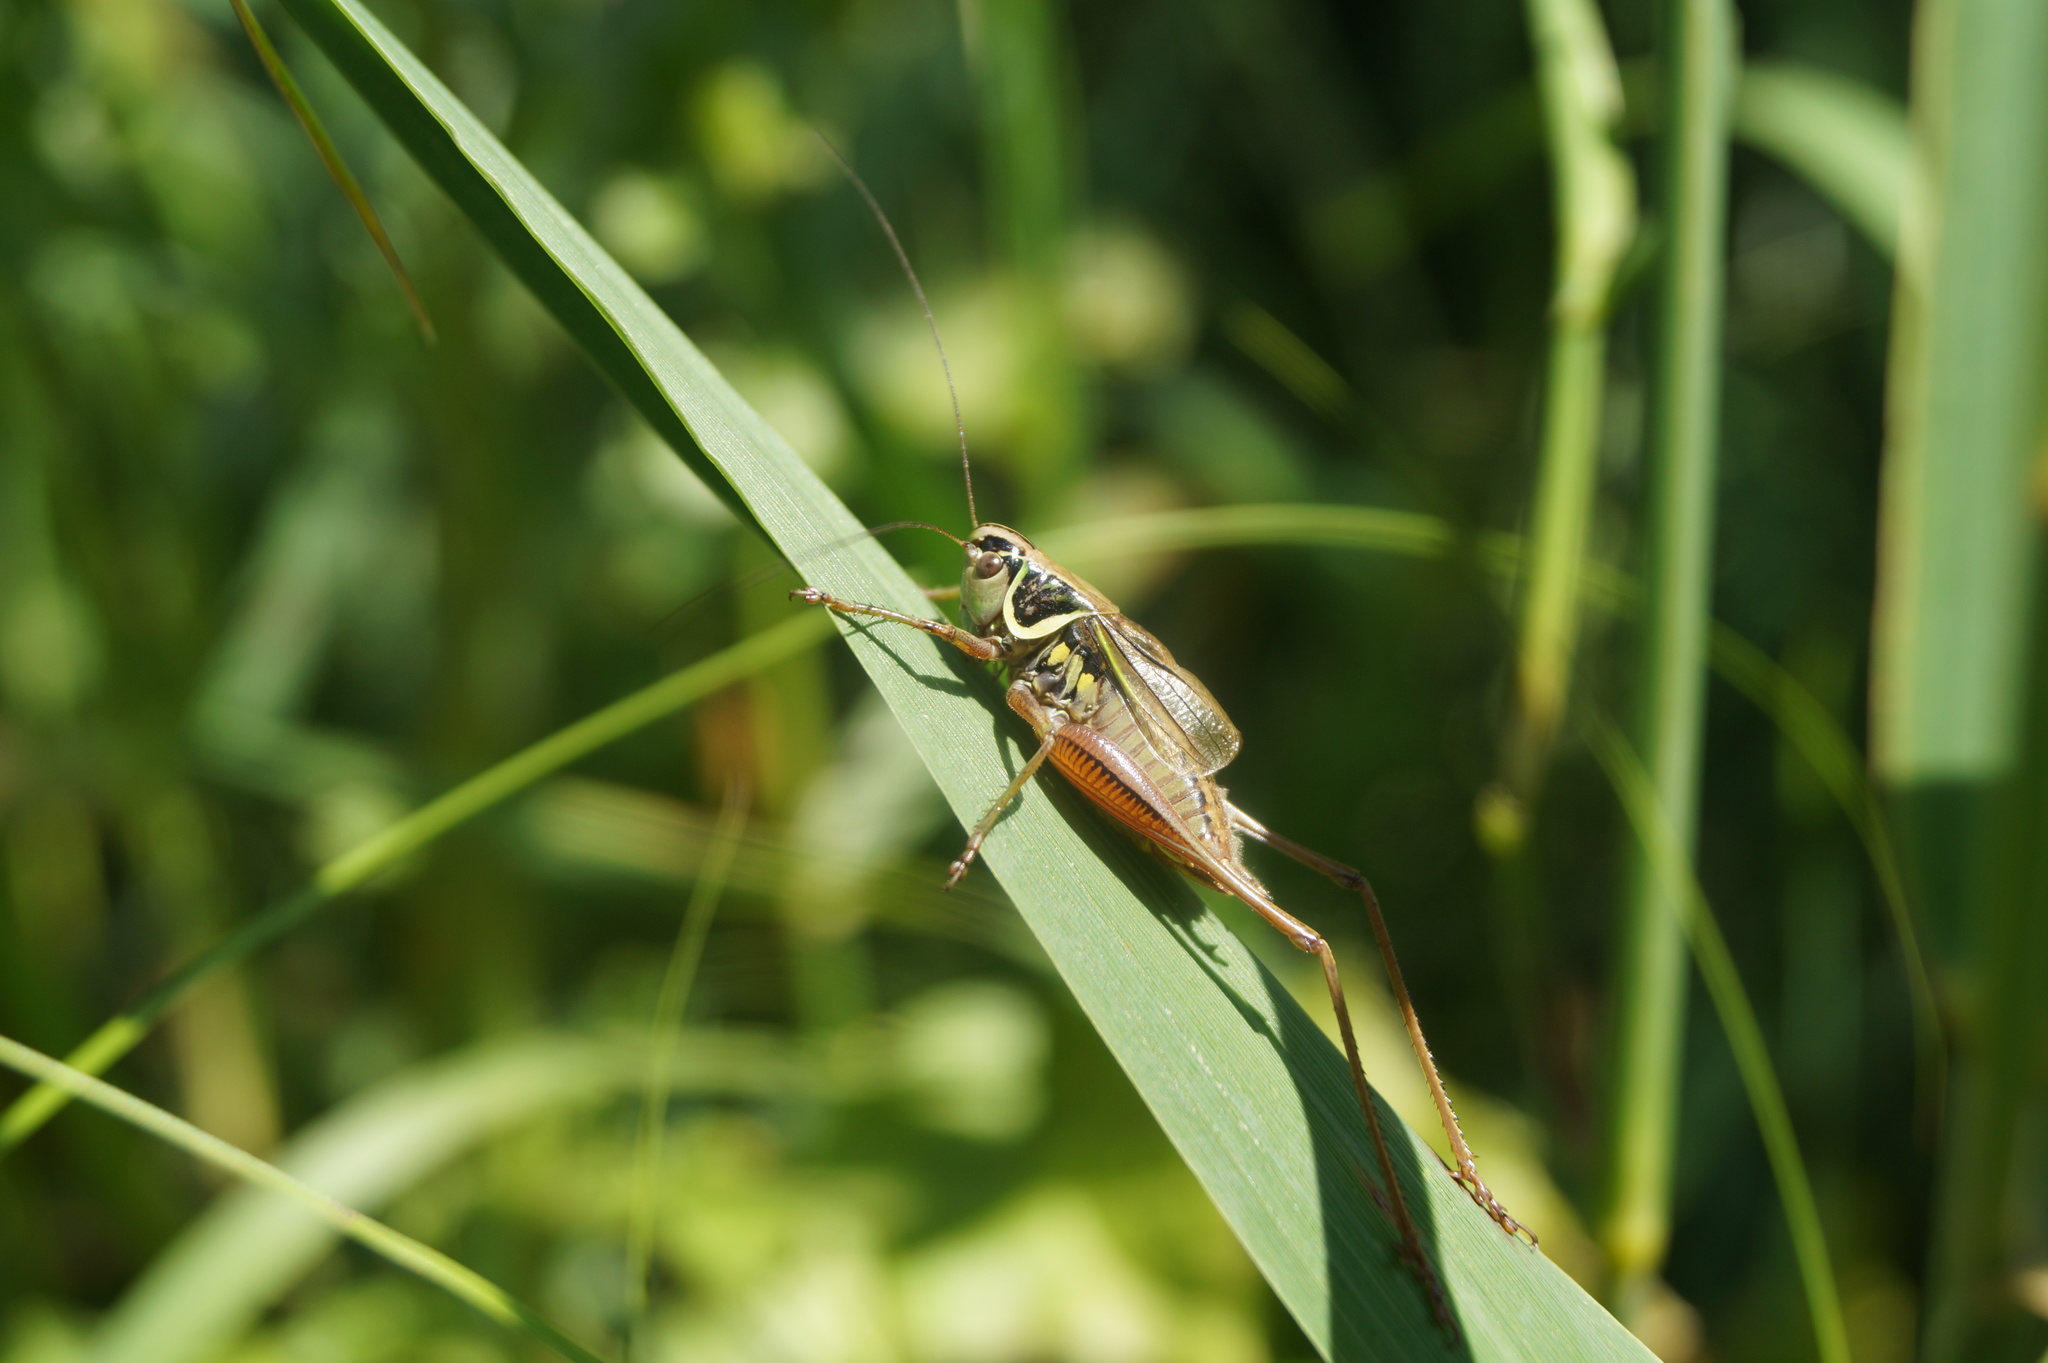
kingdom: Animalia
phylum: Arthropoda
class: Insecta
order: Orthoptera
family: Tettigoniidae
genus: Roeseliana
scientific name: Roeseliana roeselii
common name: Roesel's bush cricket
